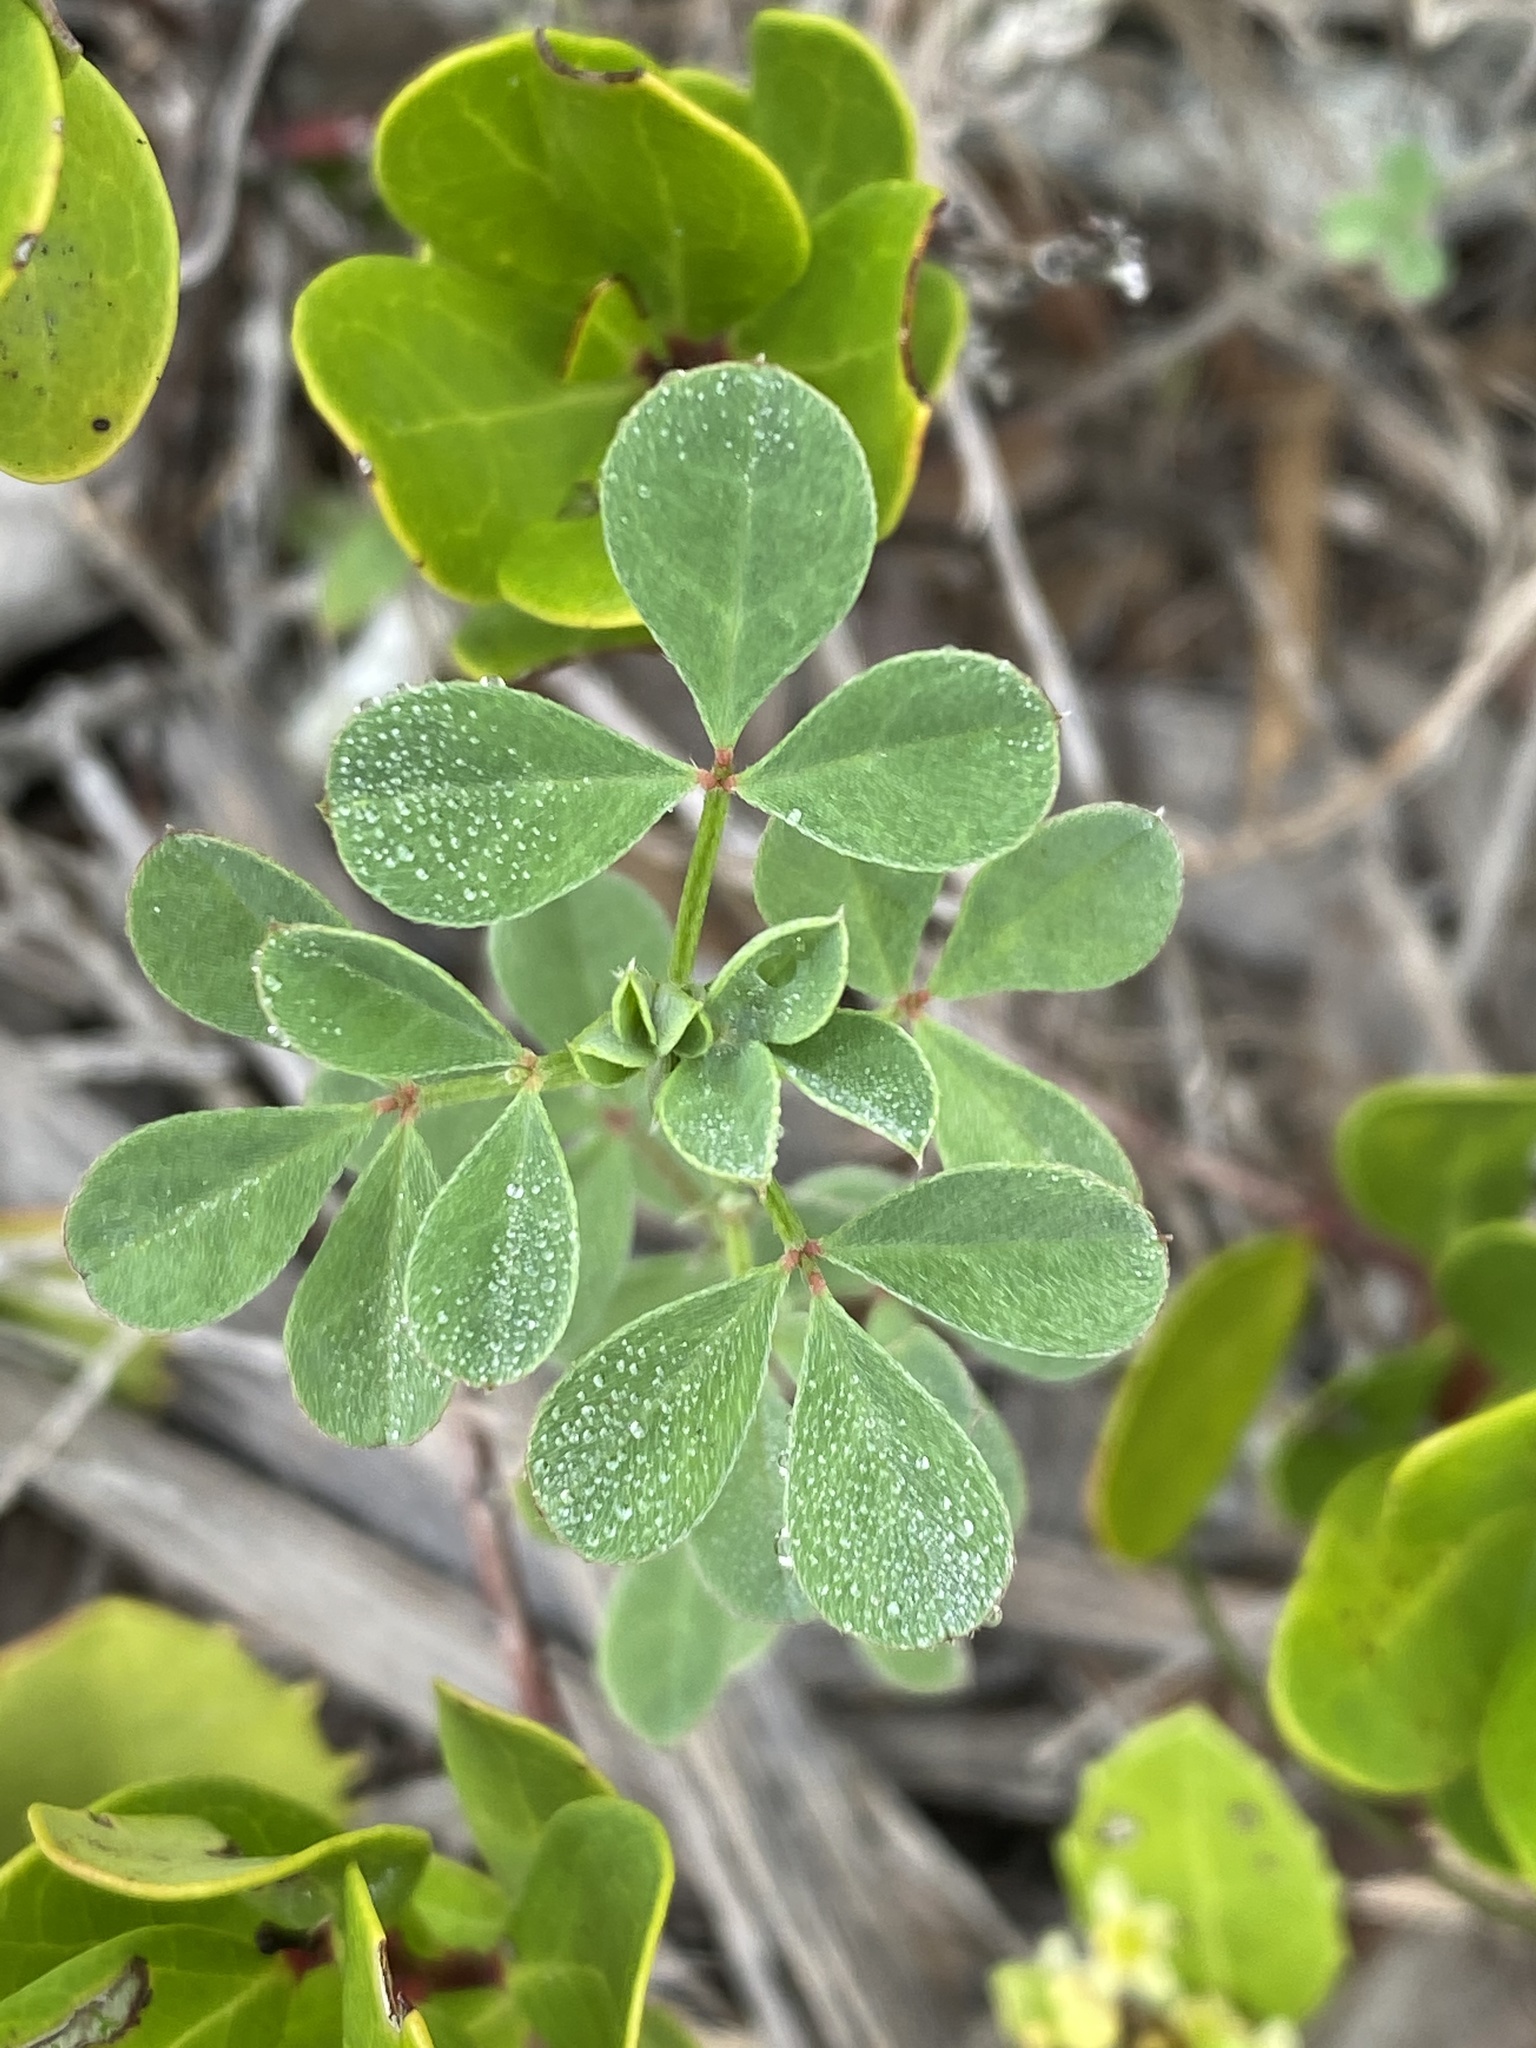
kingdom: Plantae
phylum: Tracheophyta
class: Magnoliopsida
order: Fabales
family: Fabaceae
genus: Indigofera
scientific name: Indigofera porrecta
